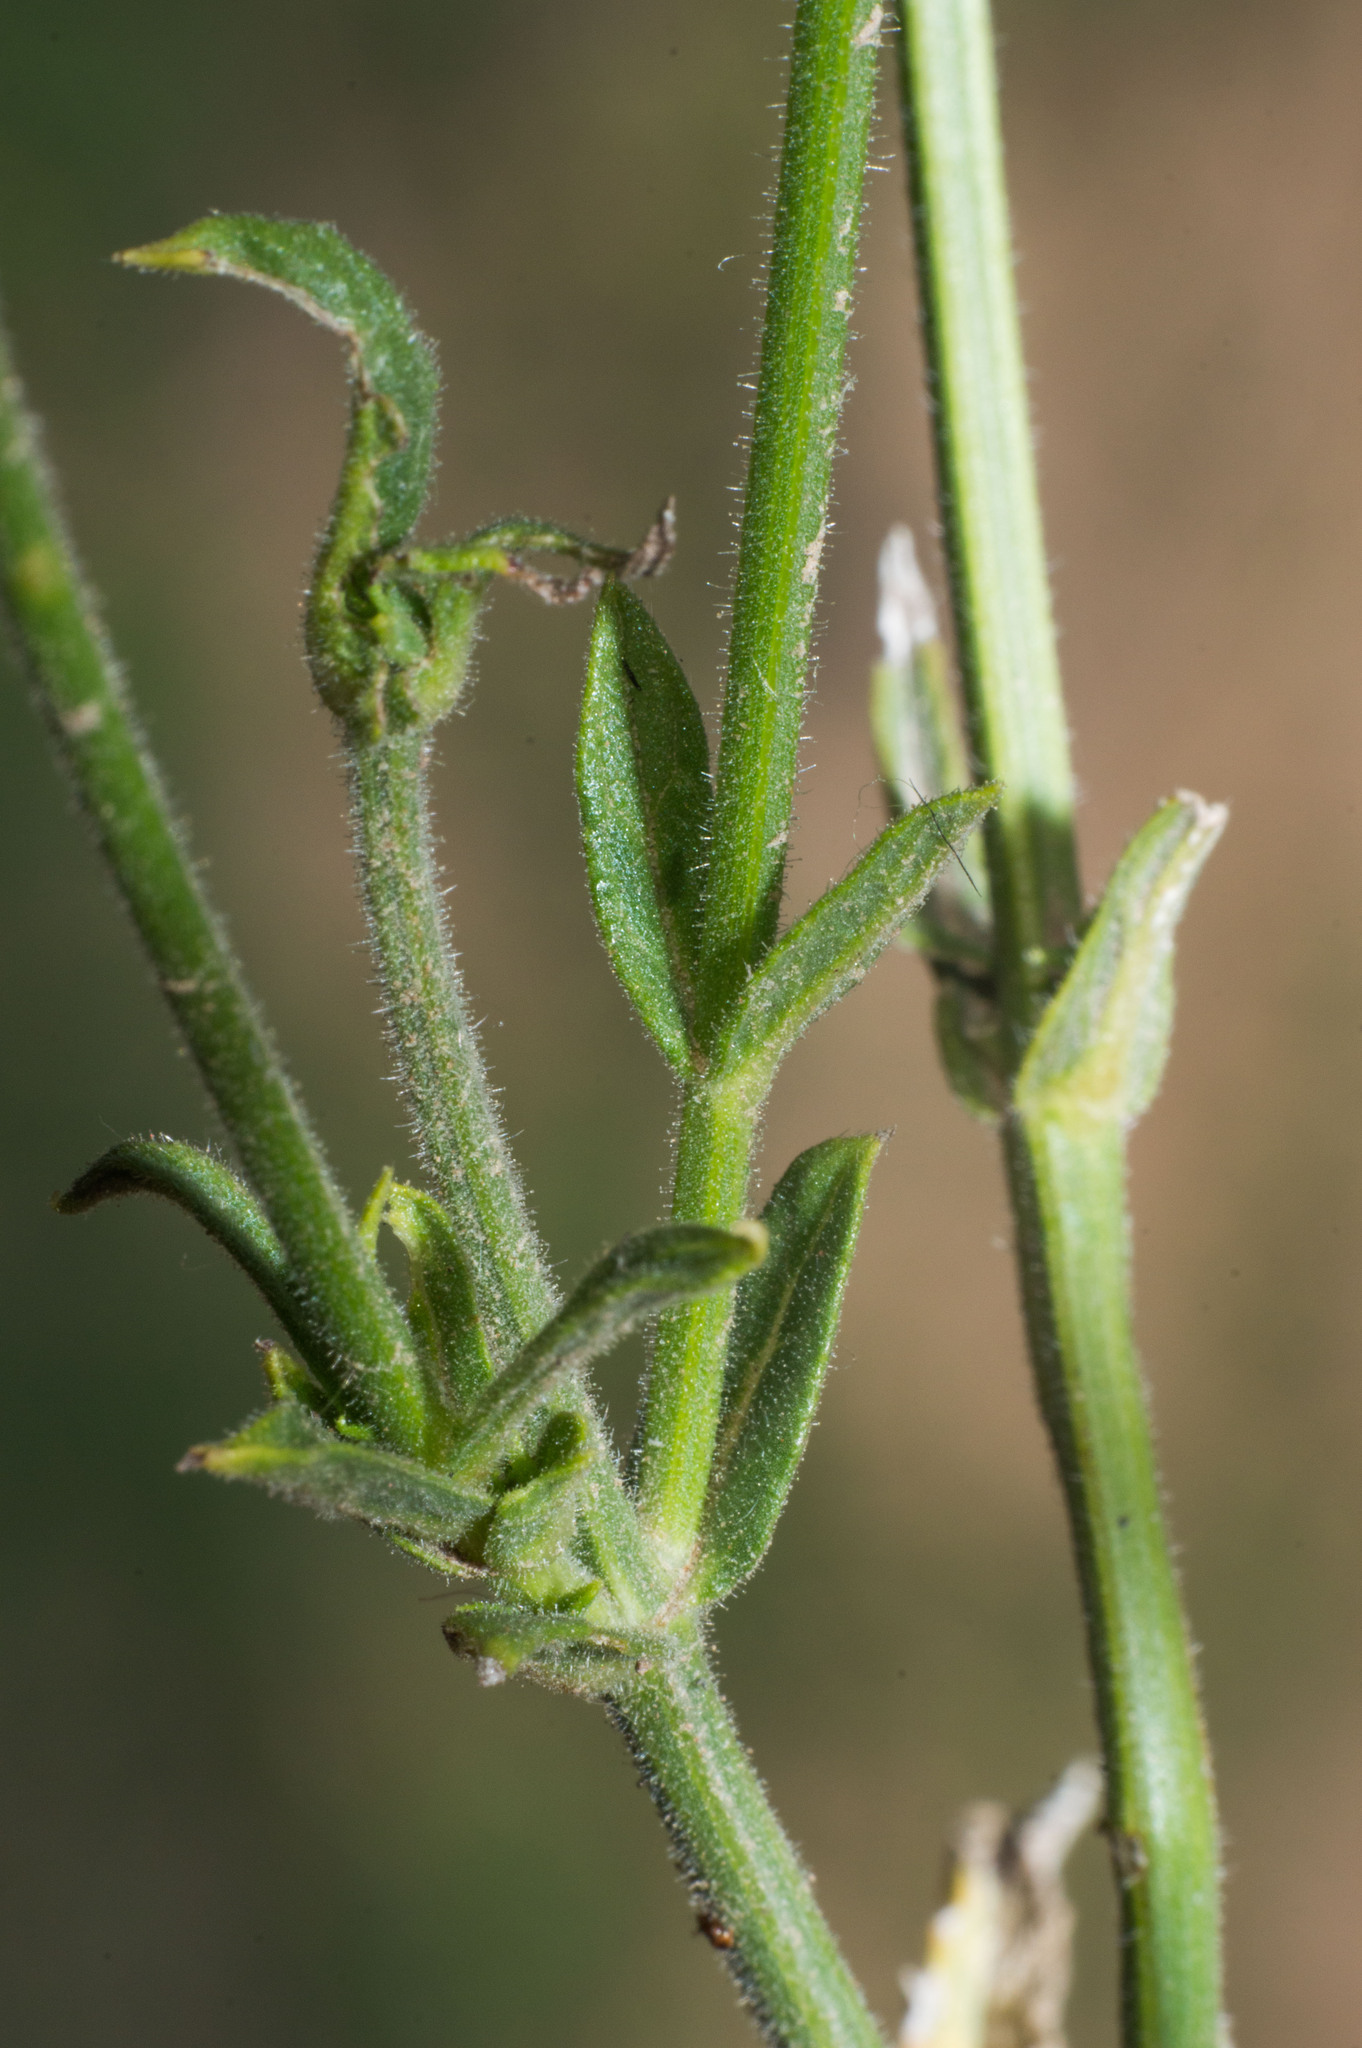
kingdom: Plantae
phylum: Tracheophyta
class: Magnoliopsida
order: Lamiales
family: Verbenaceae
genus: Verbena
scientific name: Verbena intermedia
